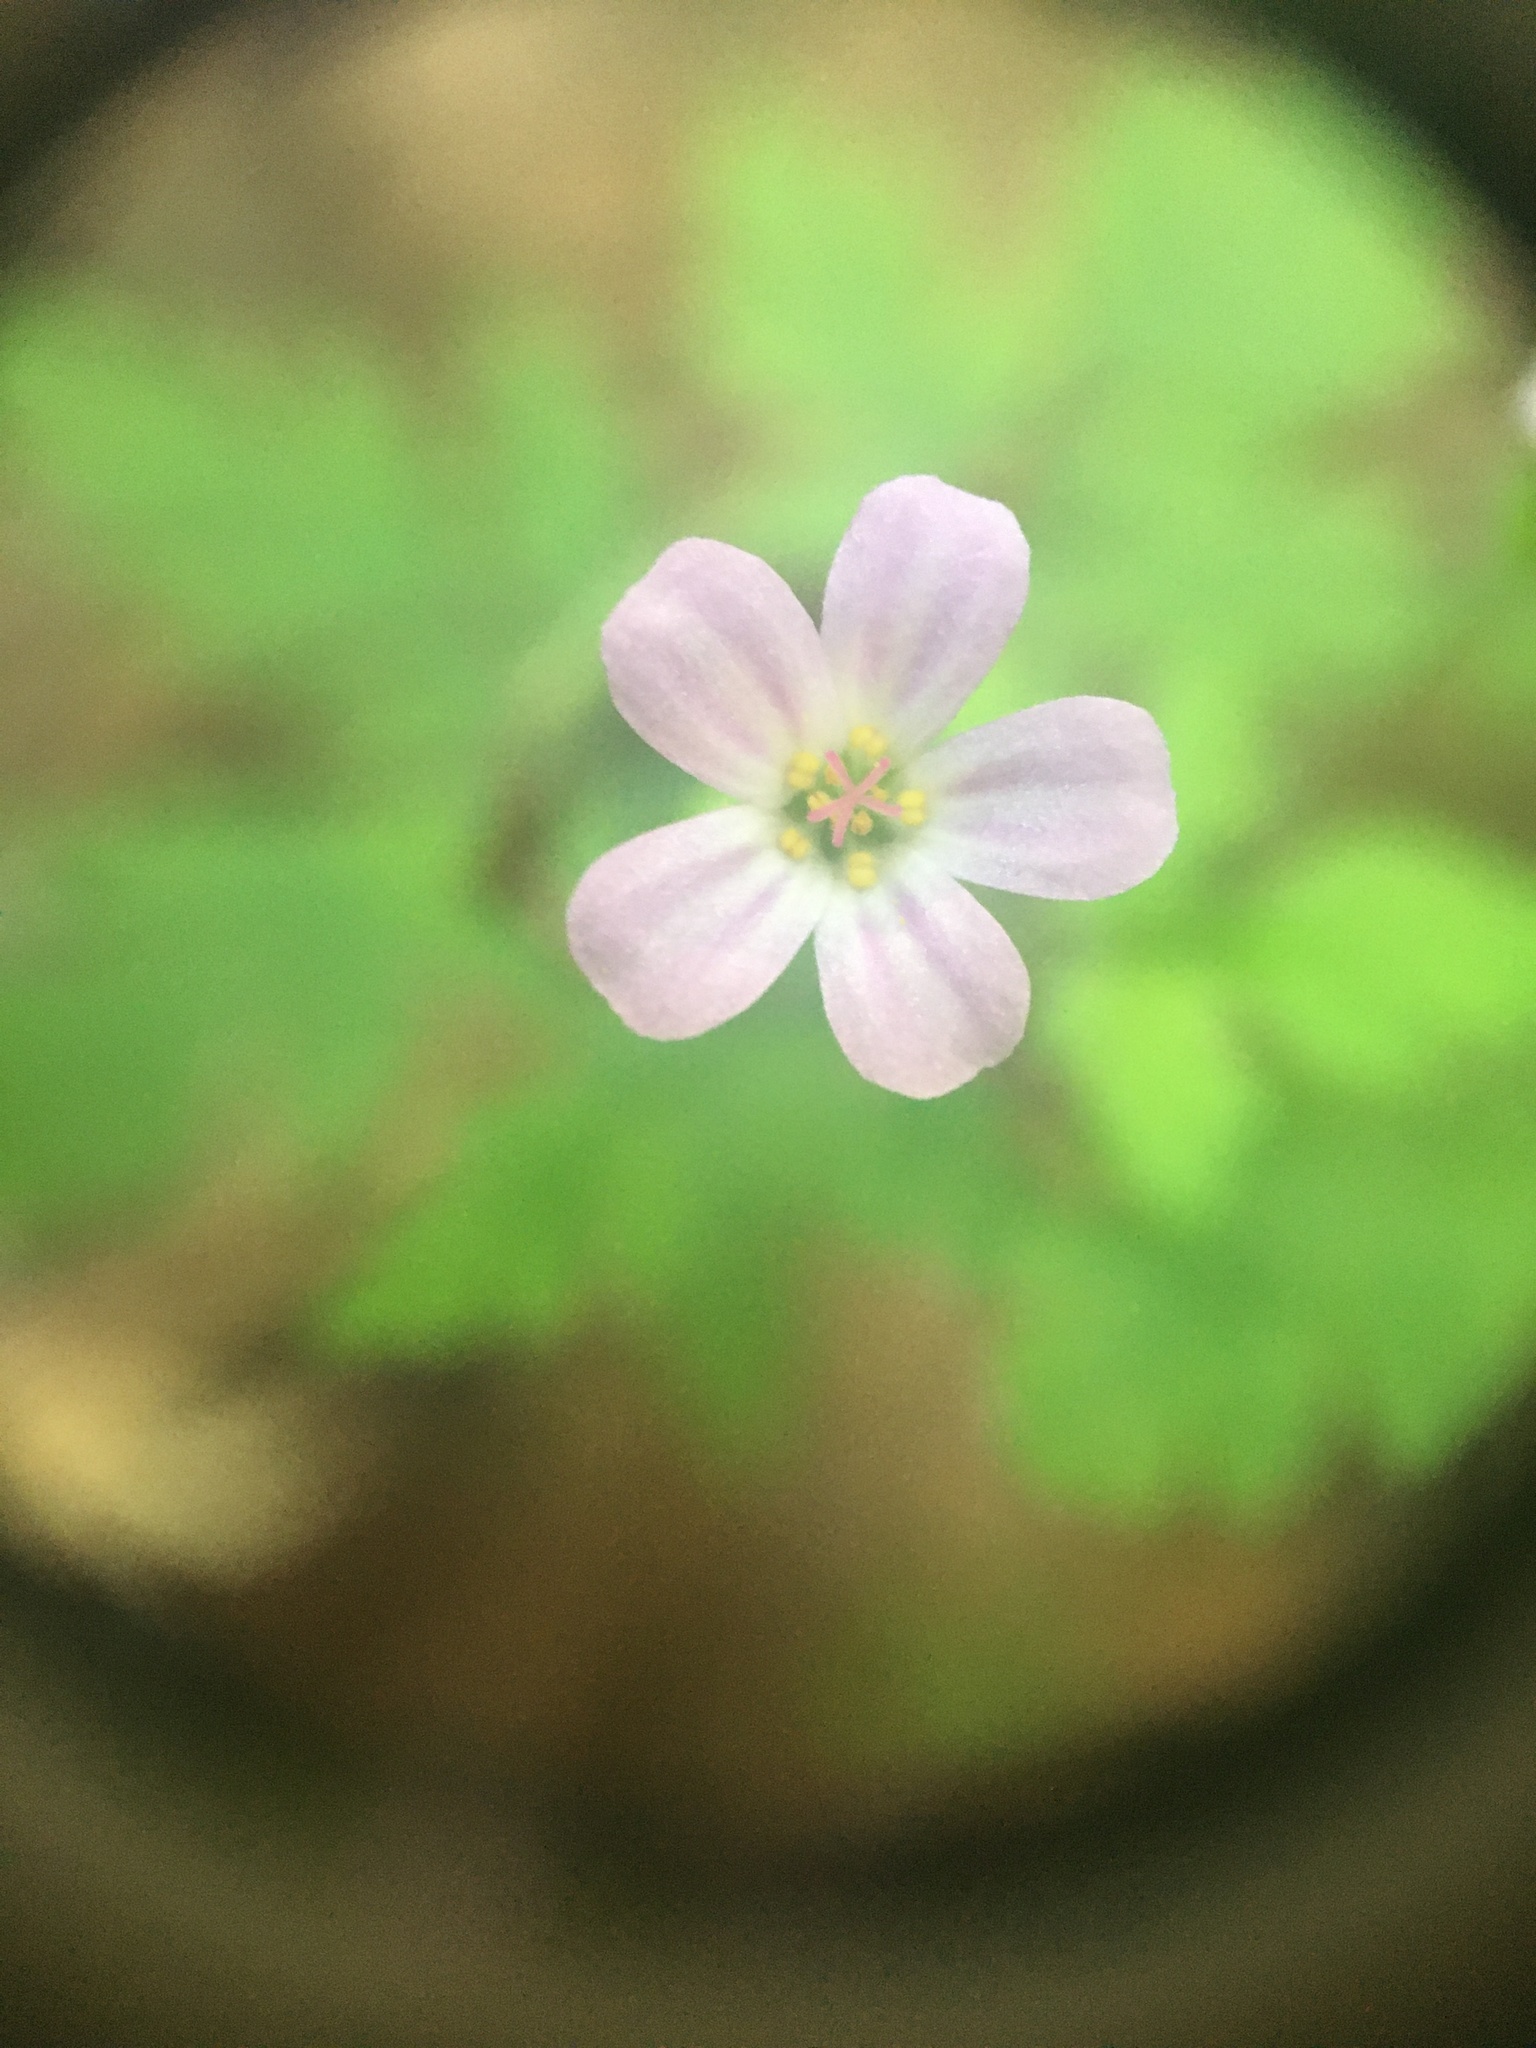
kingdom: Plantae
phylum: Tracheophyta
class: Magnoliopsida
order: Geraniales
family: Geraniaceae
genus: Geranium
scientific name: Geranium robertianum
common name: Herb-robert
